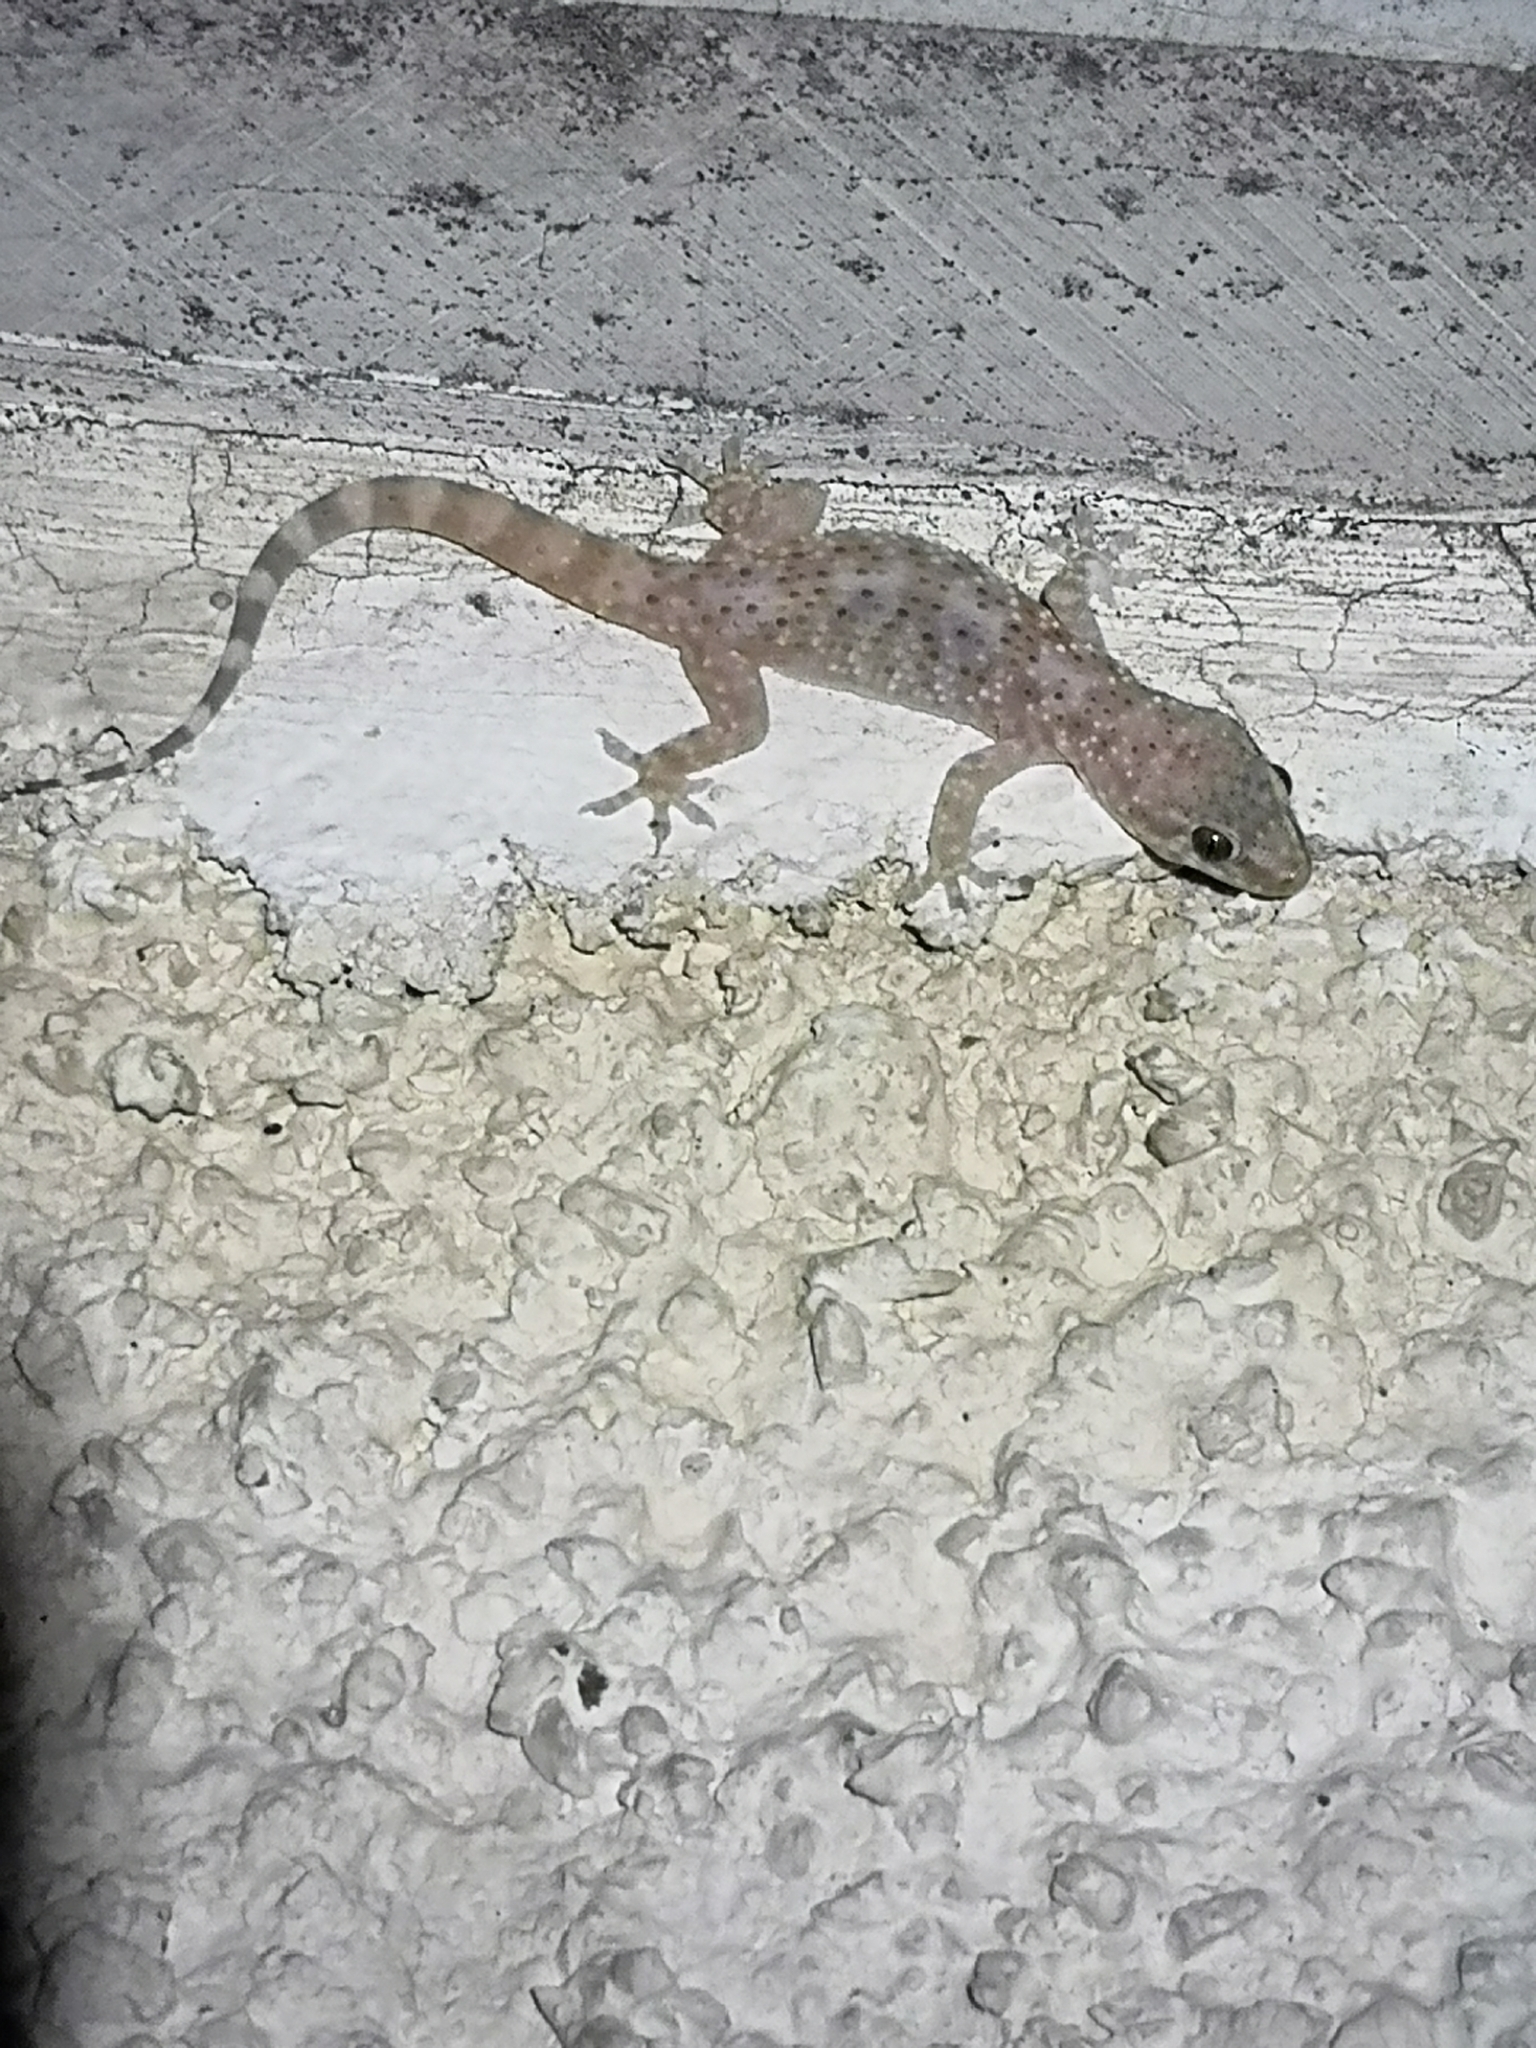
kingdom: Animalia
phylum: Chordata
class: Squamata
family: Gekkonidae
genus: Hemidactylus
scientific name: Hemidactylus turcicus
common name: Turkish gecko
